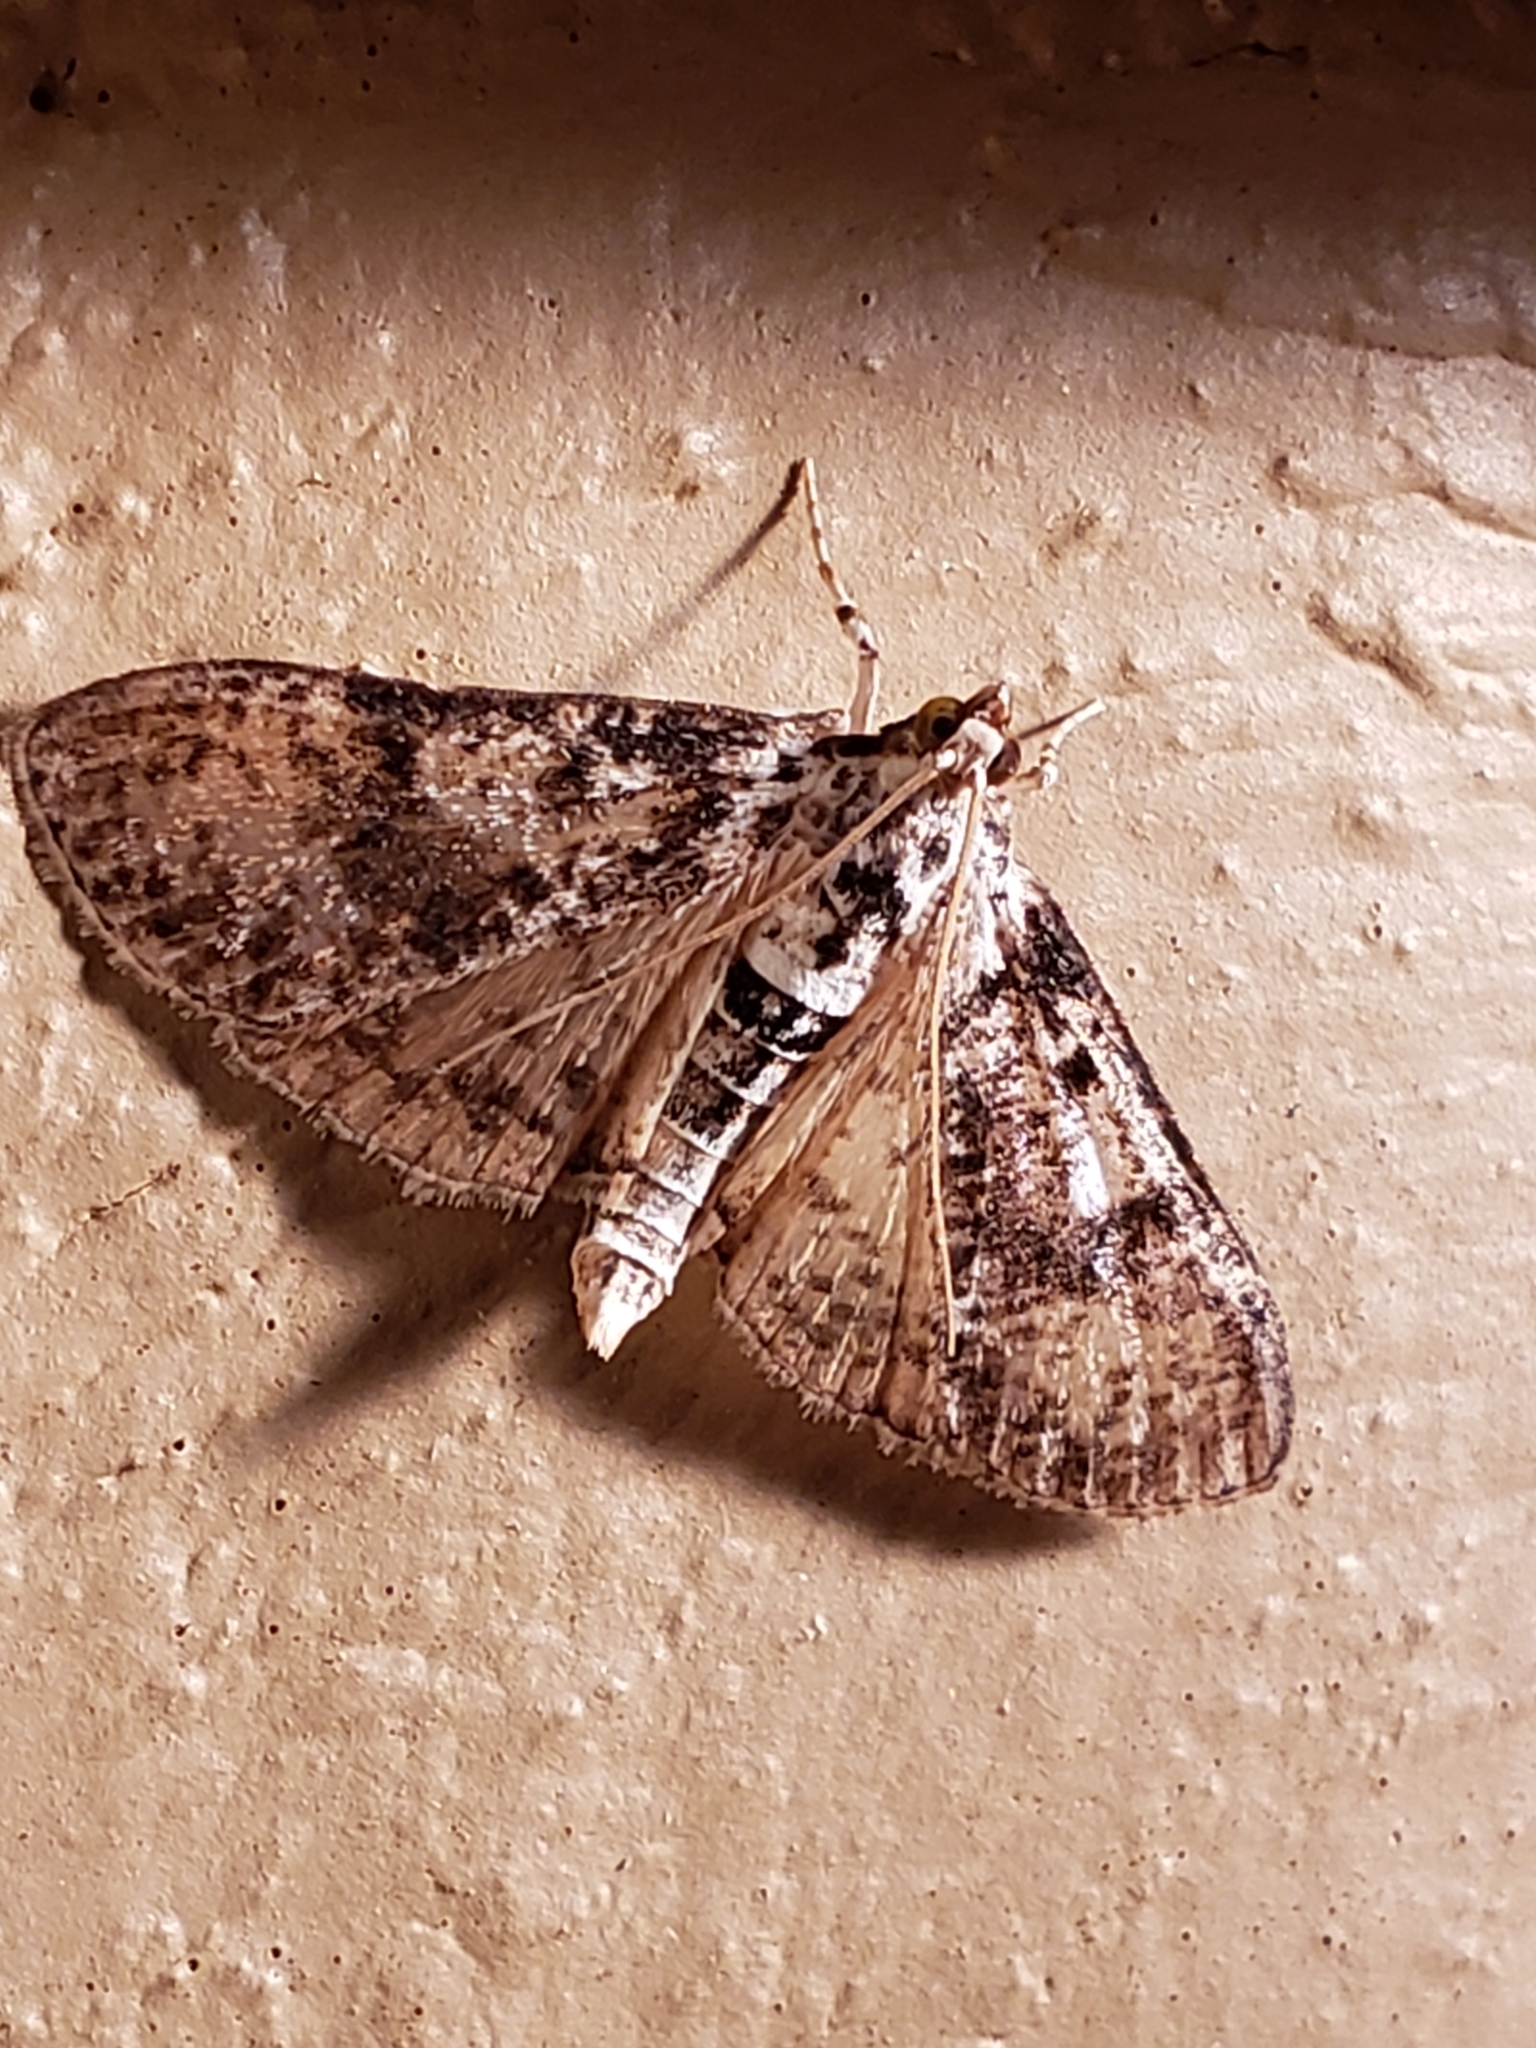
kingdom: Animalia
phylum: Arthropoda
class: Insecta
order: Lepidoptera
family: Crambidae
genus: Palpita
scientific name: Palpita magniferalis
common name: Splendid palpita moth
